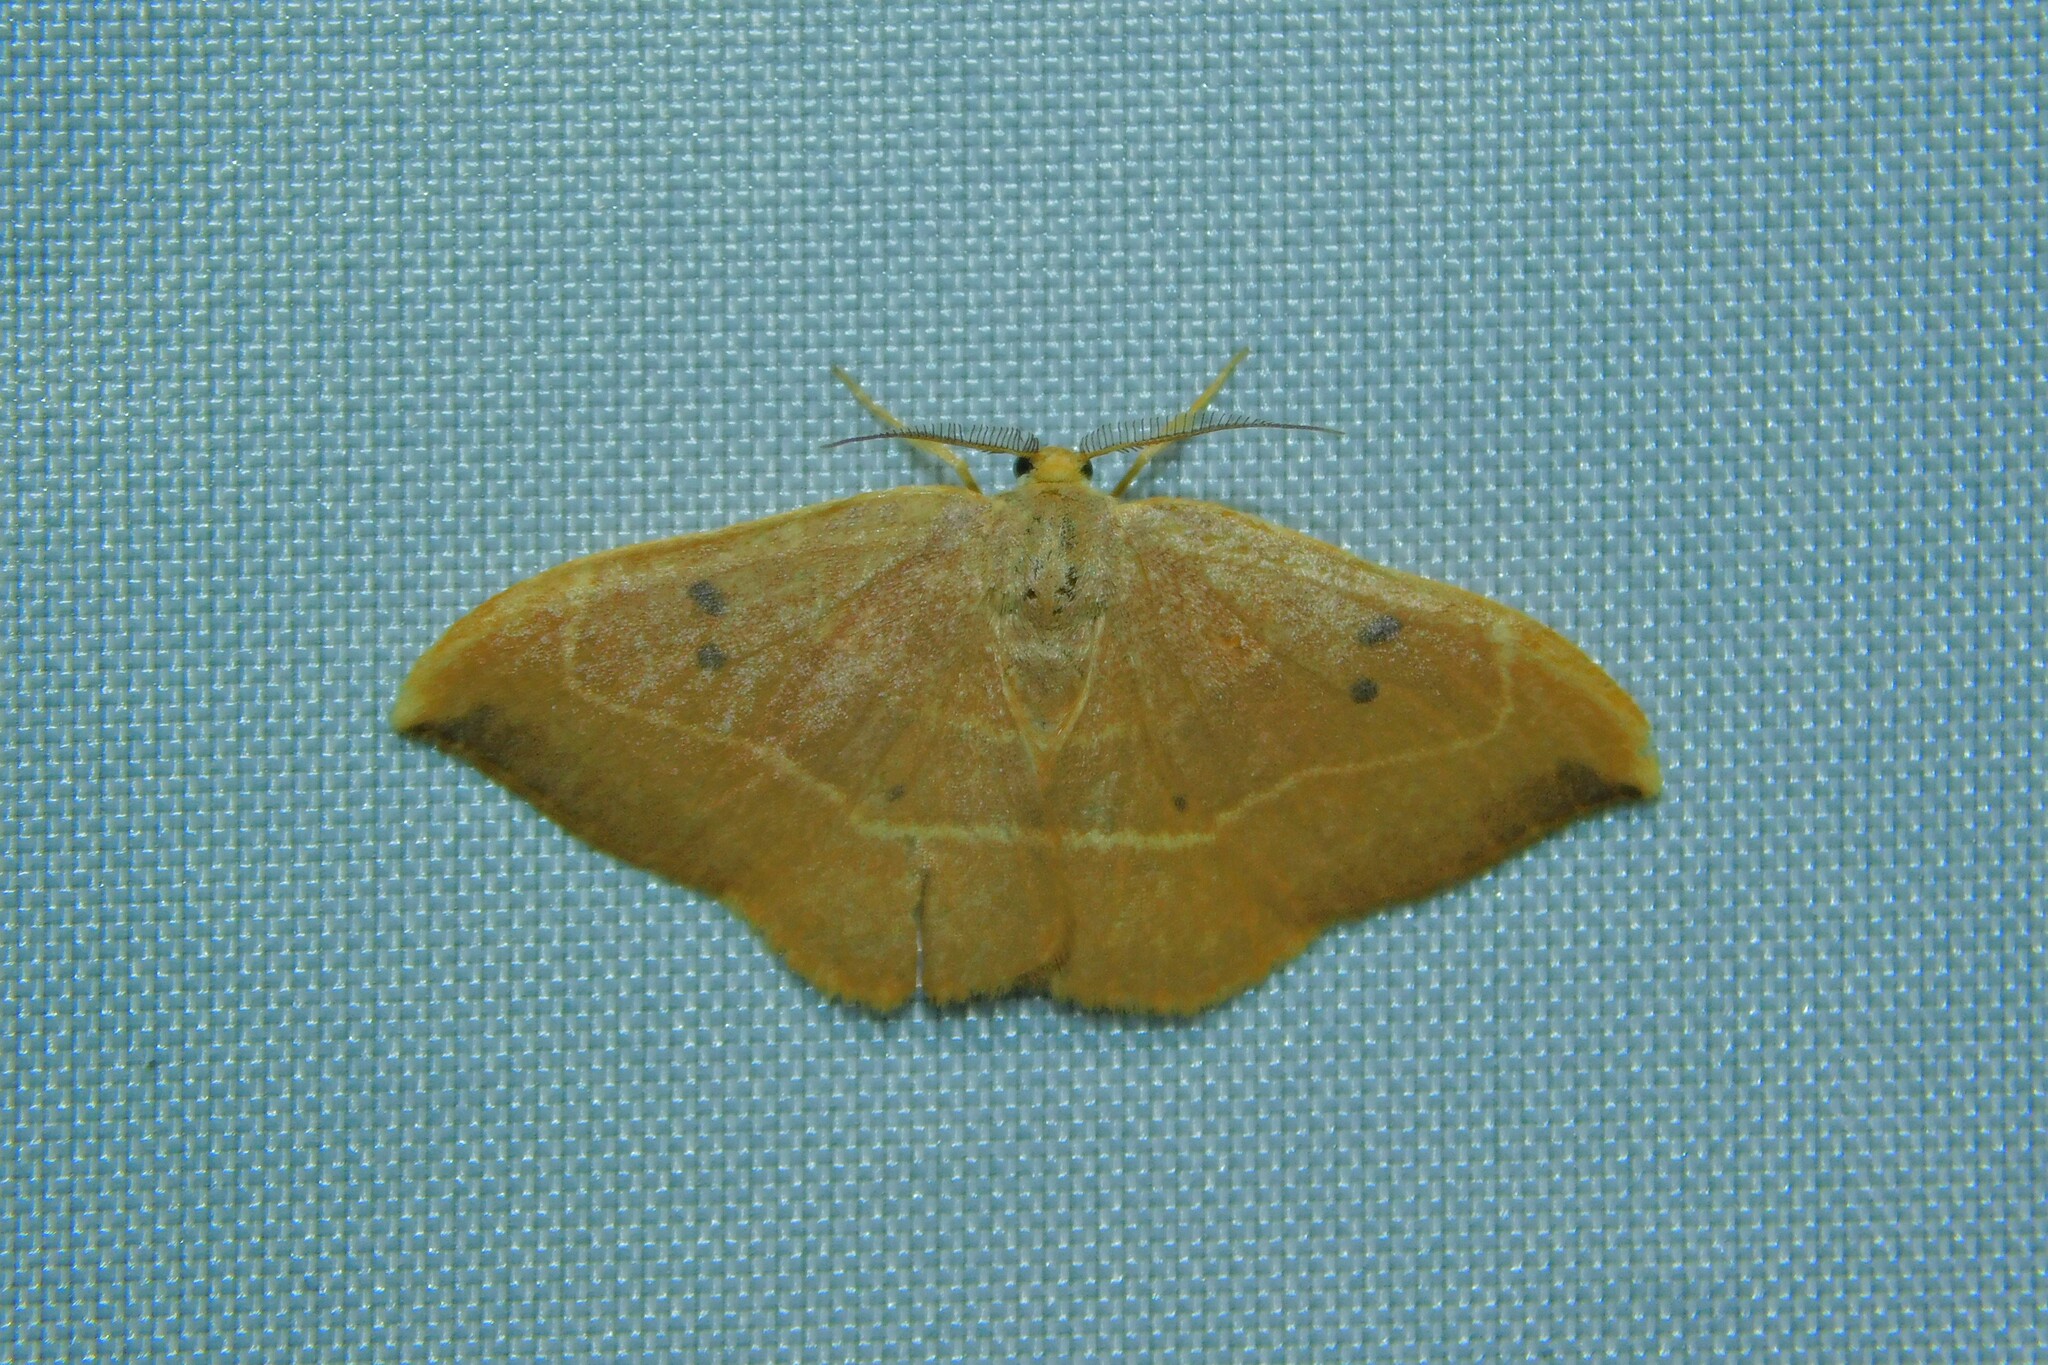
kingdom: Animalia
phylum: Arthropoda
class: Insecta
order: Lepidoptera
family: Drepanidae
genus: Watsonalla
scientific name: Watsonalla binaria
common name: Oak hook-tip
